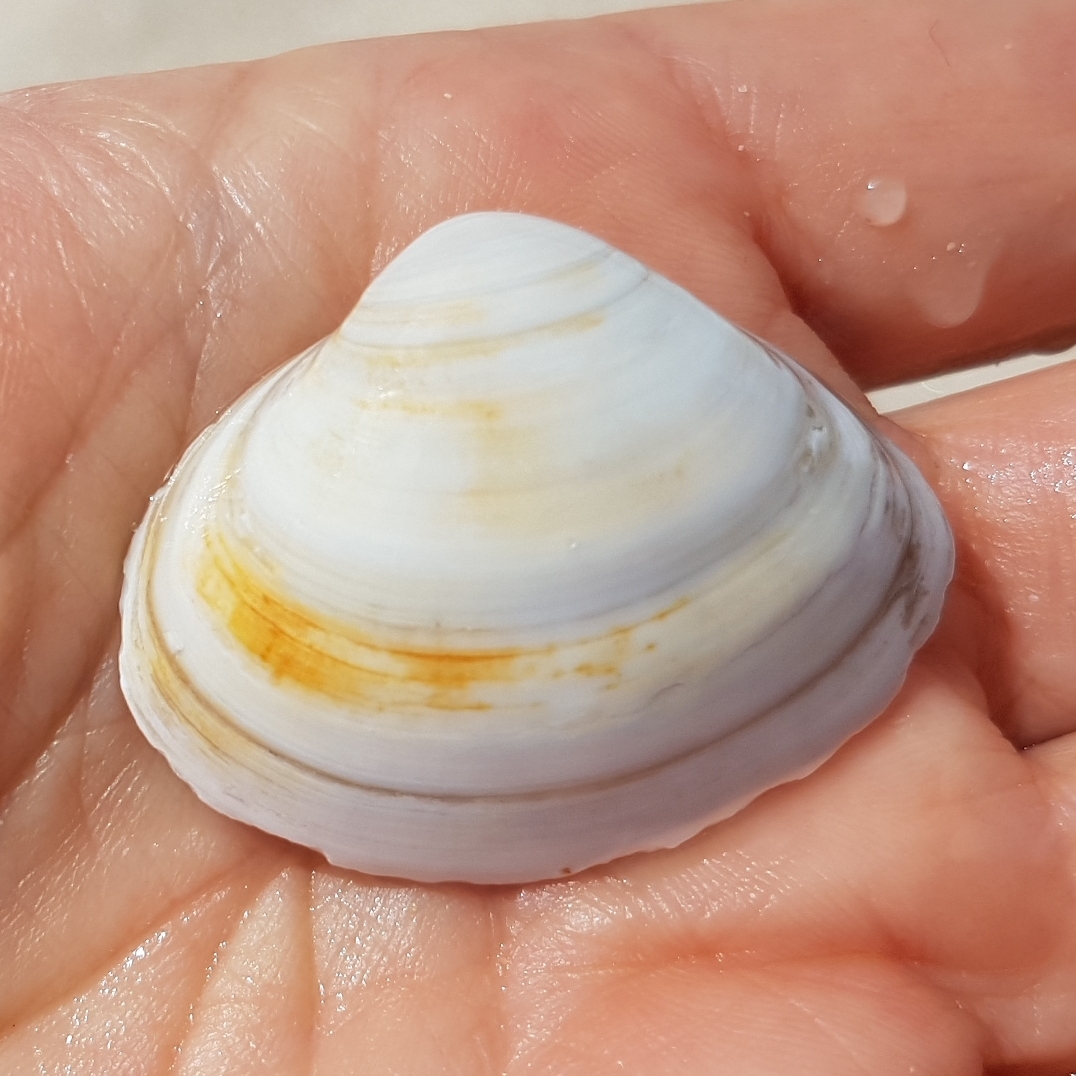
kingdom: Animalia
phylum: Mollusca
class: Bivalvia
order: Venerida
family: Mactridae
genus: Spisula
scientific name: Spisula solida
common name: Thick trough shell
